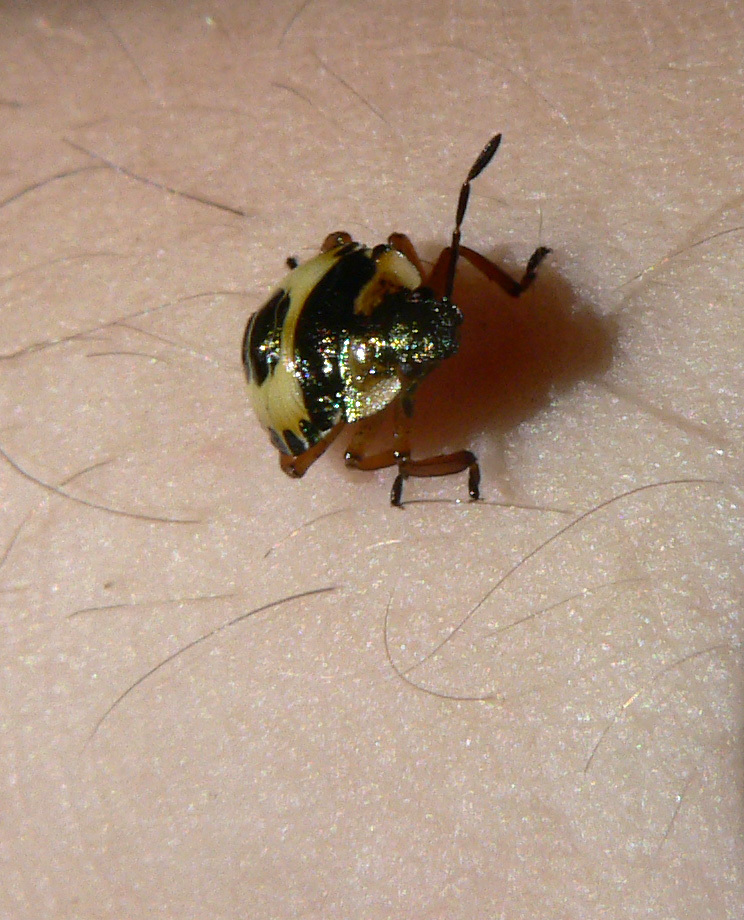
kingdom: Animalia
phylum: Arthropoda
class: Insecta
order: Hemiptera
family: Pentatomidae
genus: Troilus
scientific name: Troilus luridus
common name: Bronze shieldbug
